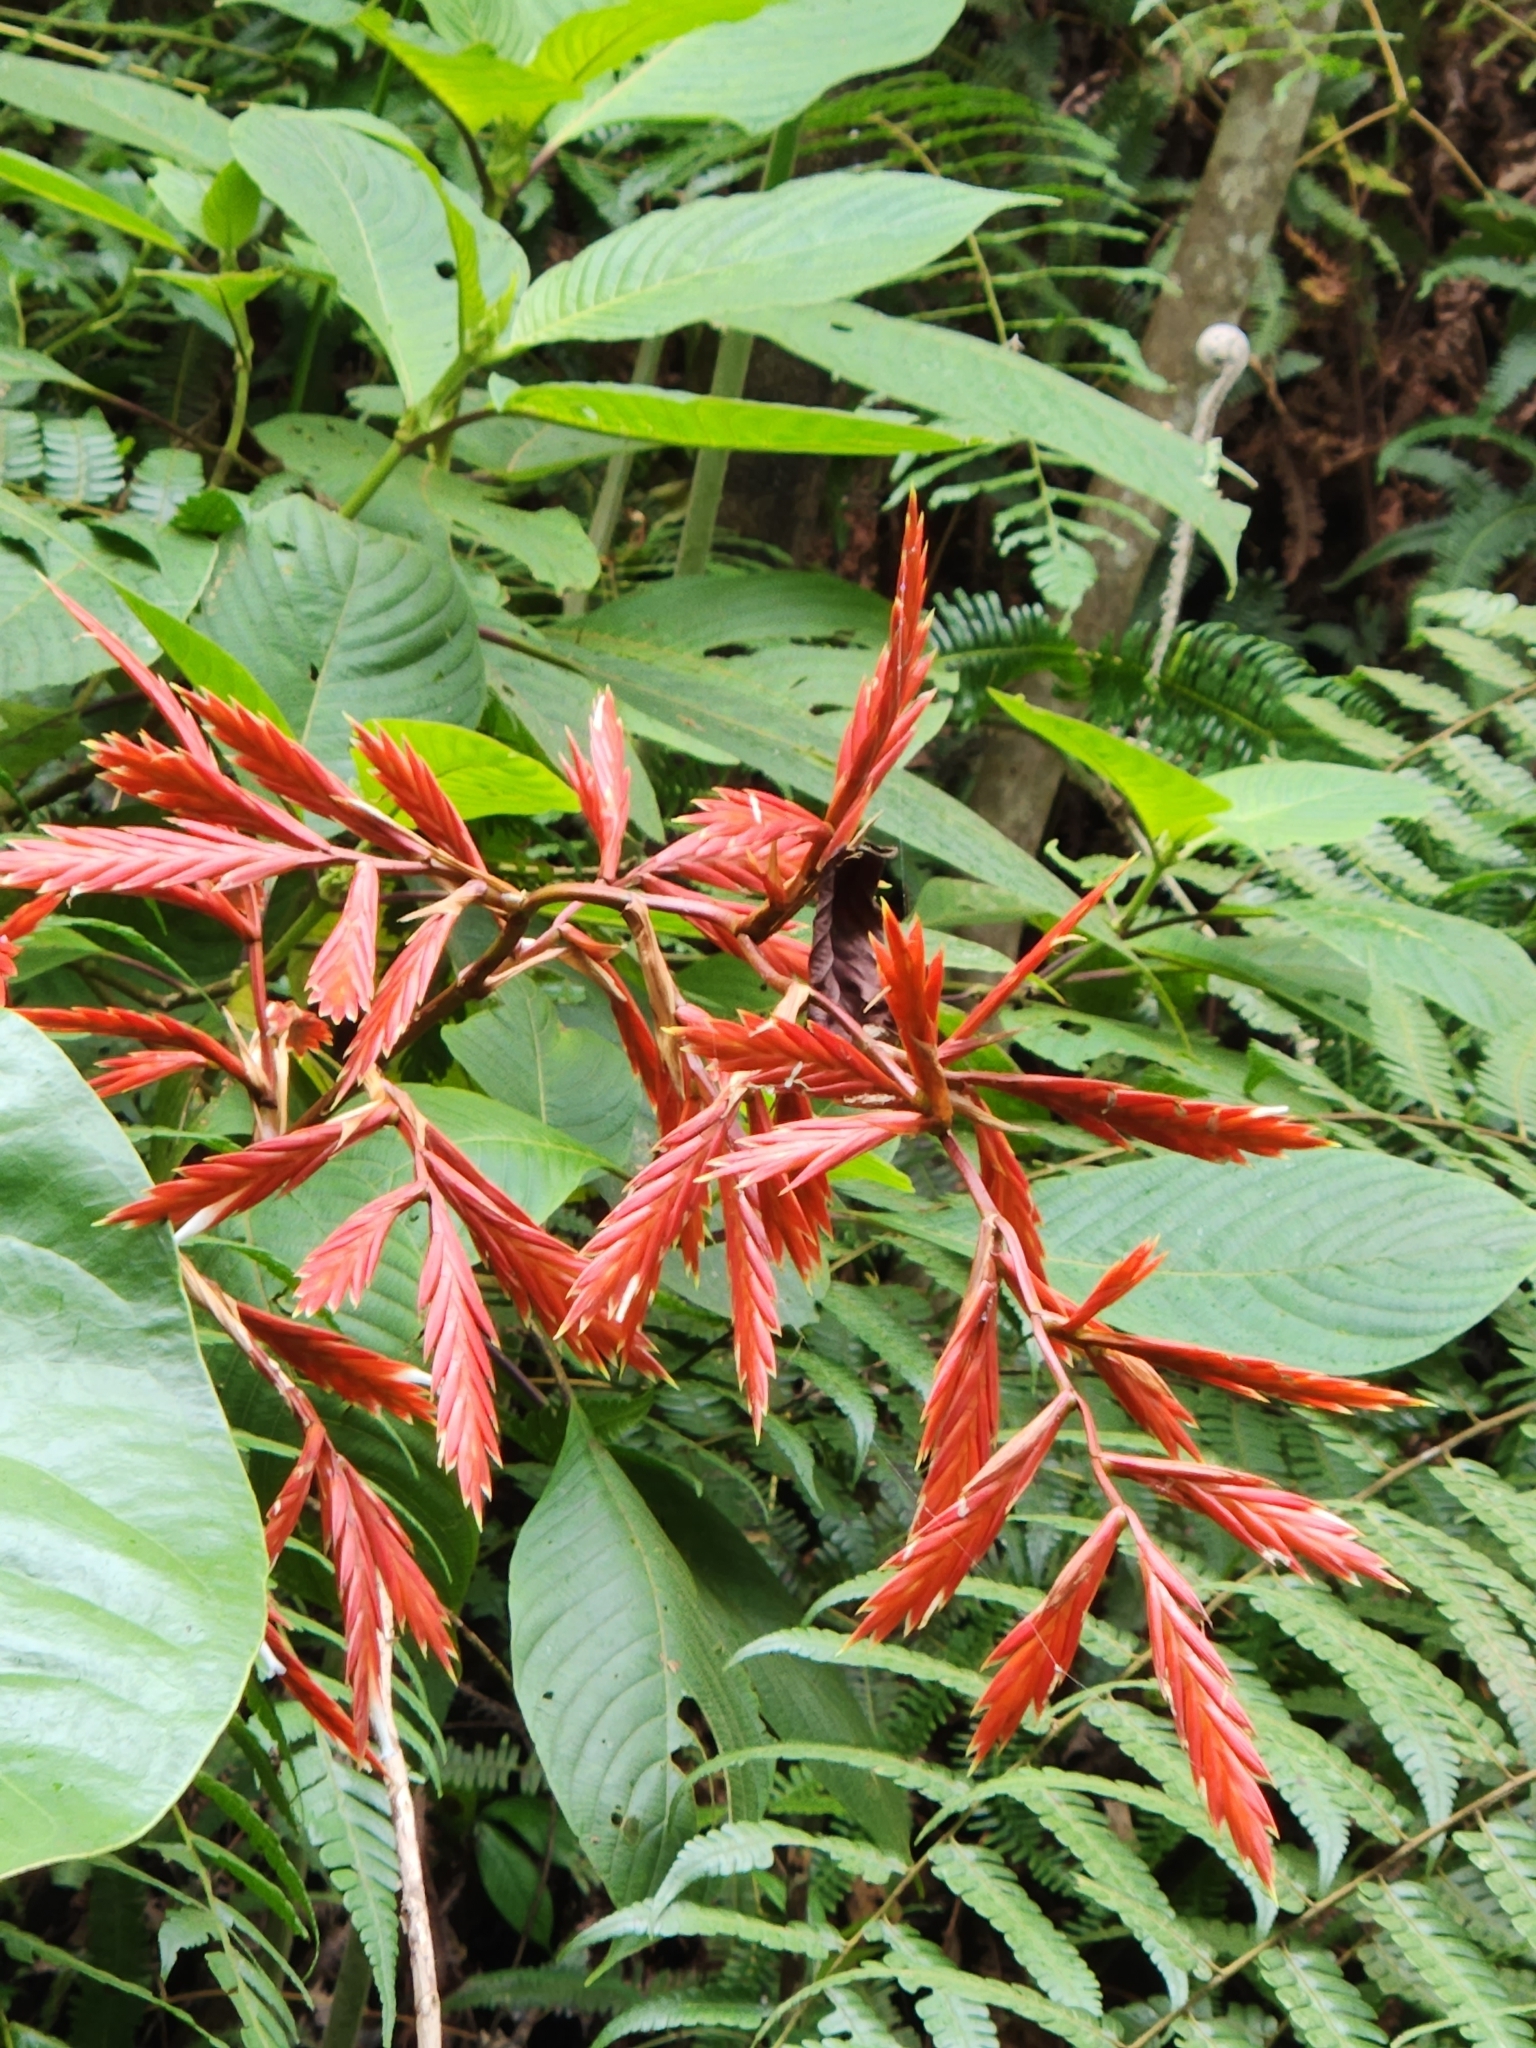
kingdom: Plantae
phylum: Tracheophyta
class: Liliopsida
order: Poales
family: Bromeliaceae
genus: Vriesea
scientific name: Vriesea elata
